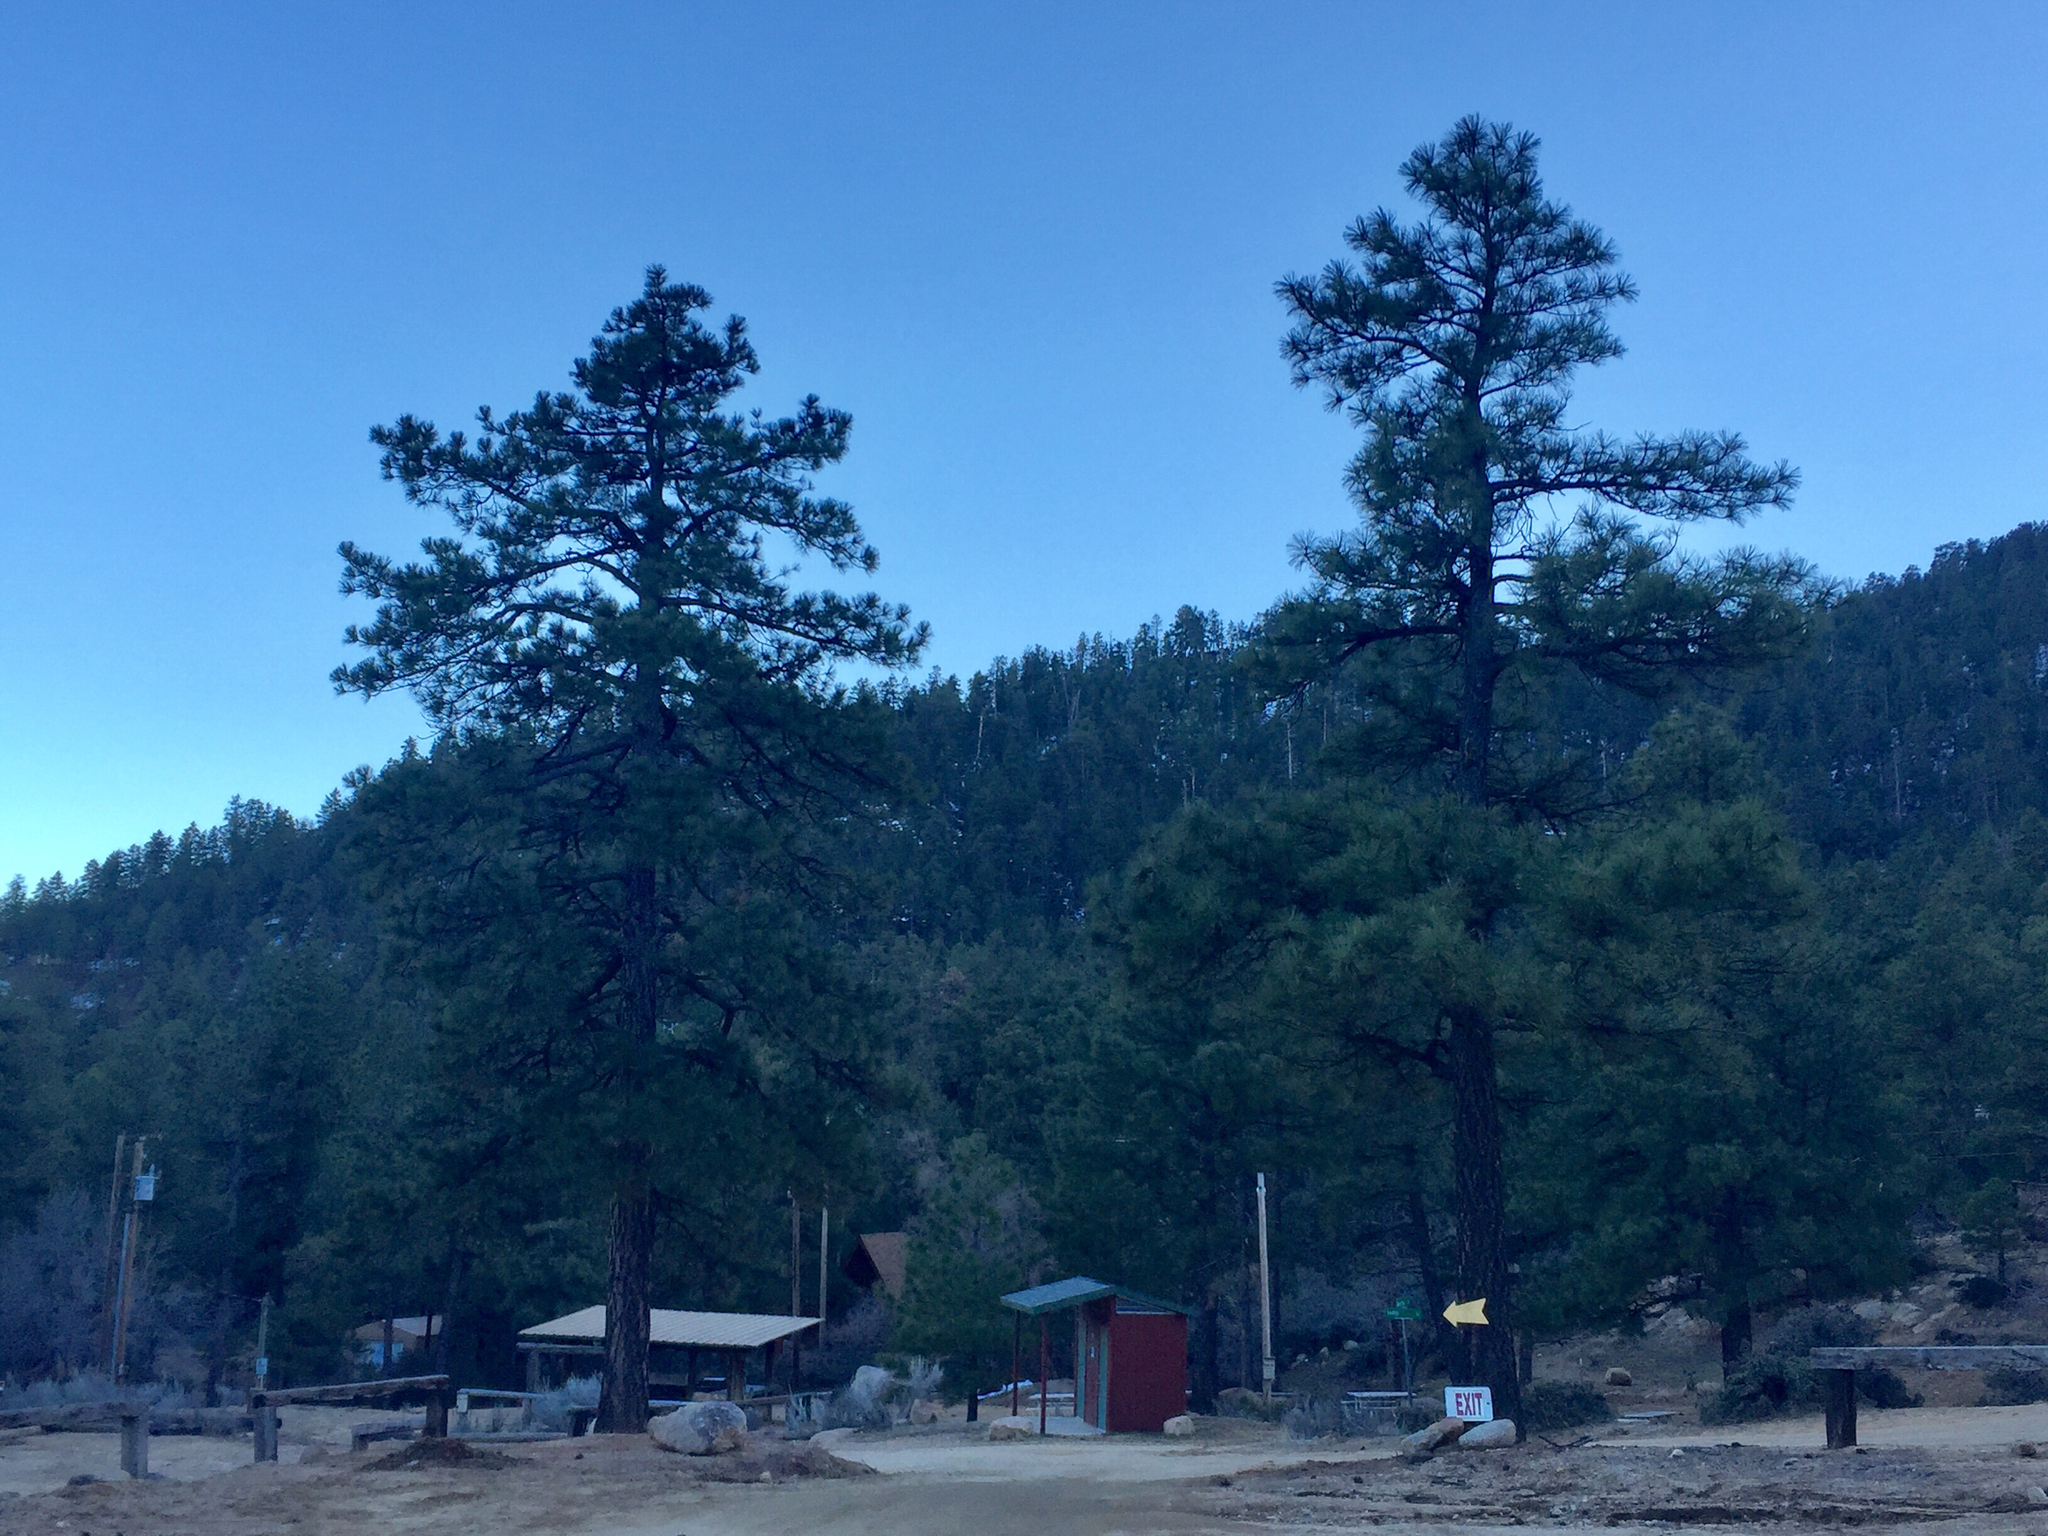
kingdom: Plantae
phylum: Tracheophyta
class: Pinopsida
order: Pinales
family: Pinaceae
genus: Pinus
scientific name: Pinus ponderosa
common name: Western yellow-pine
